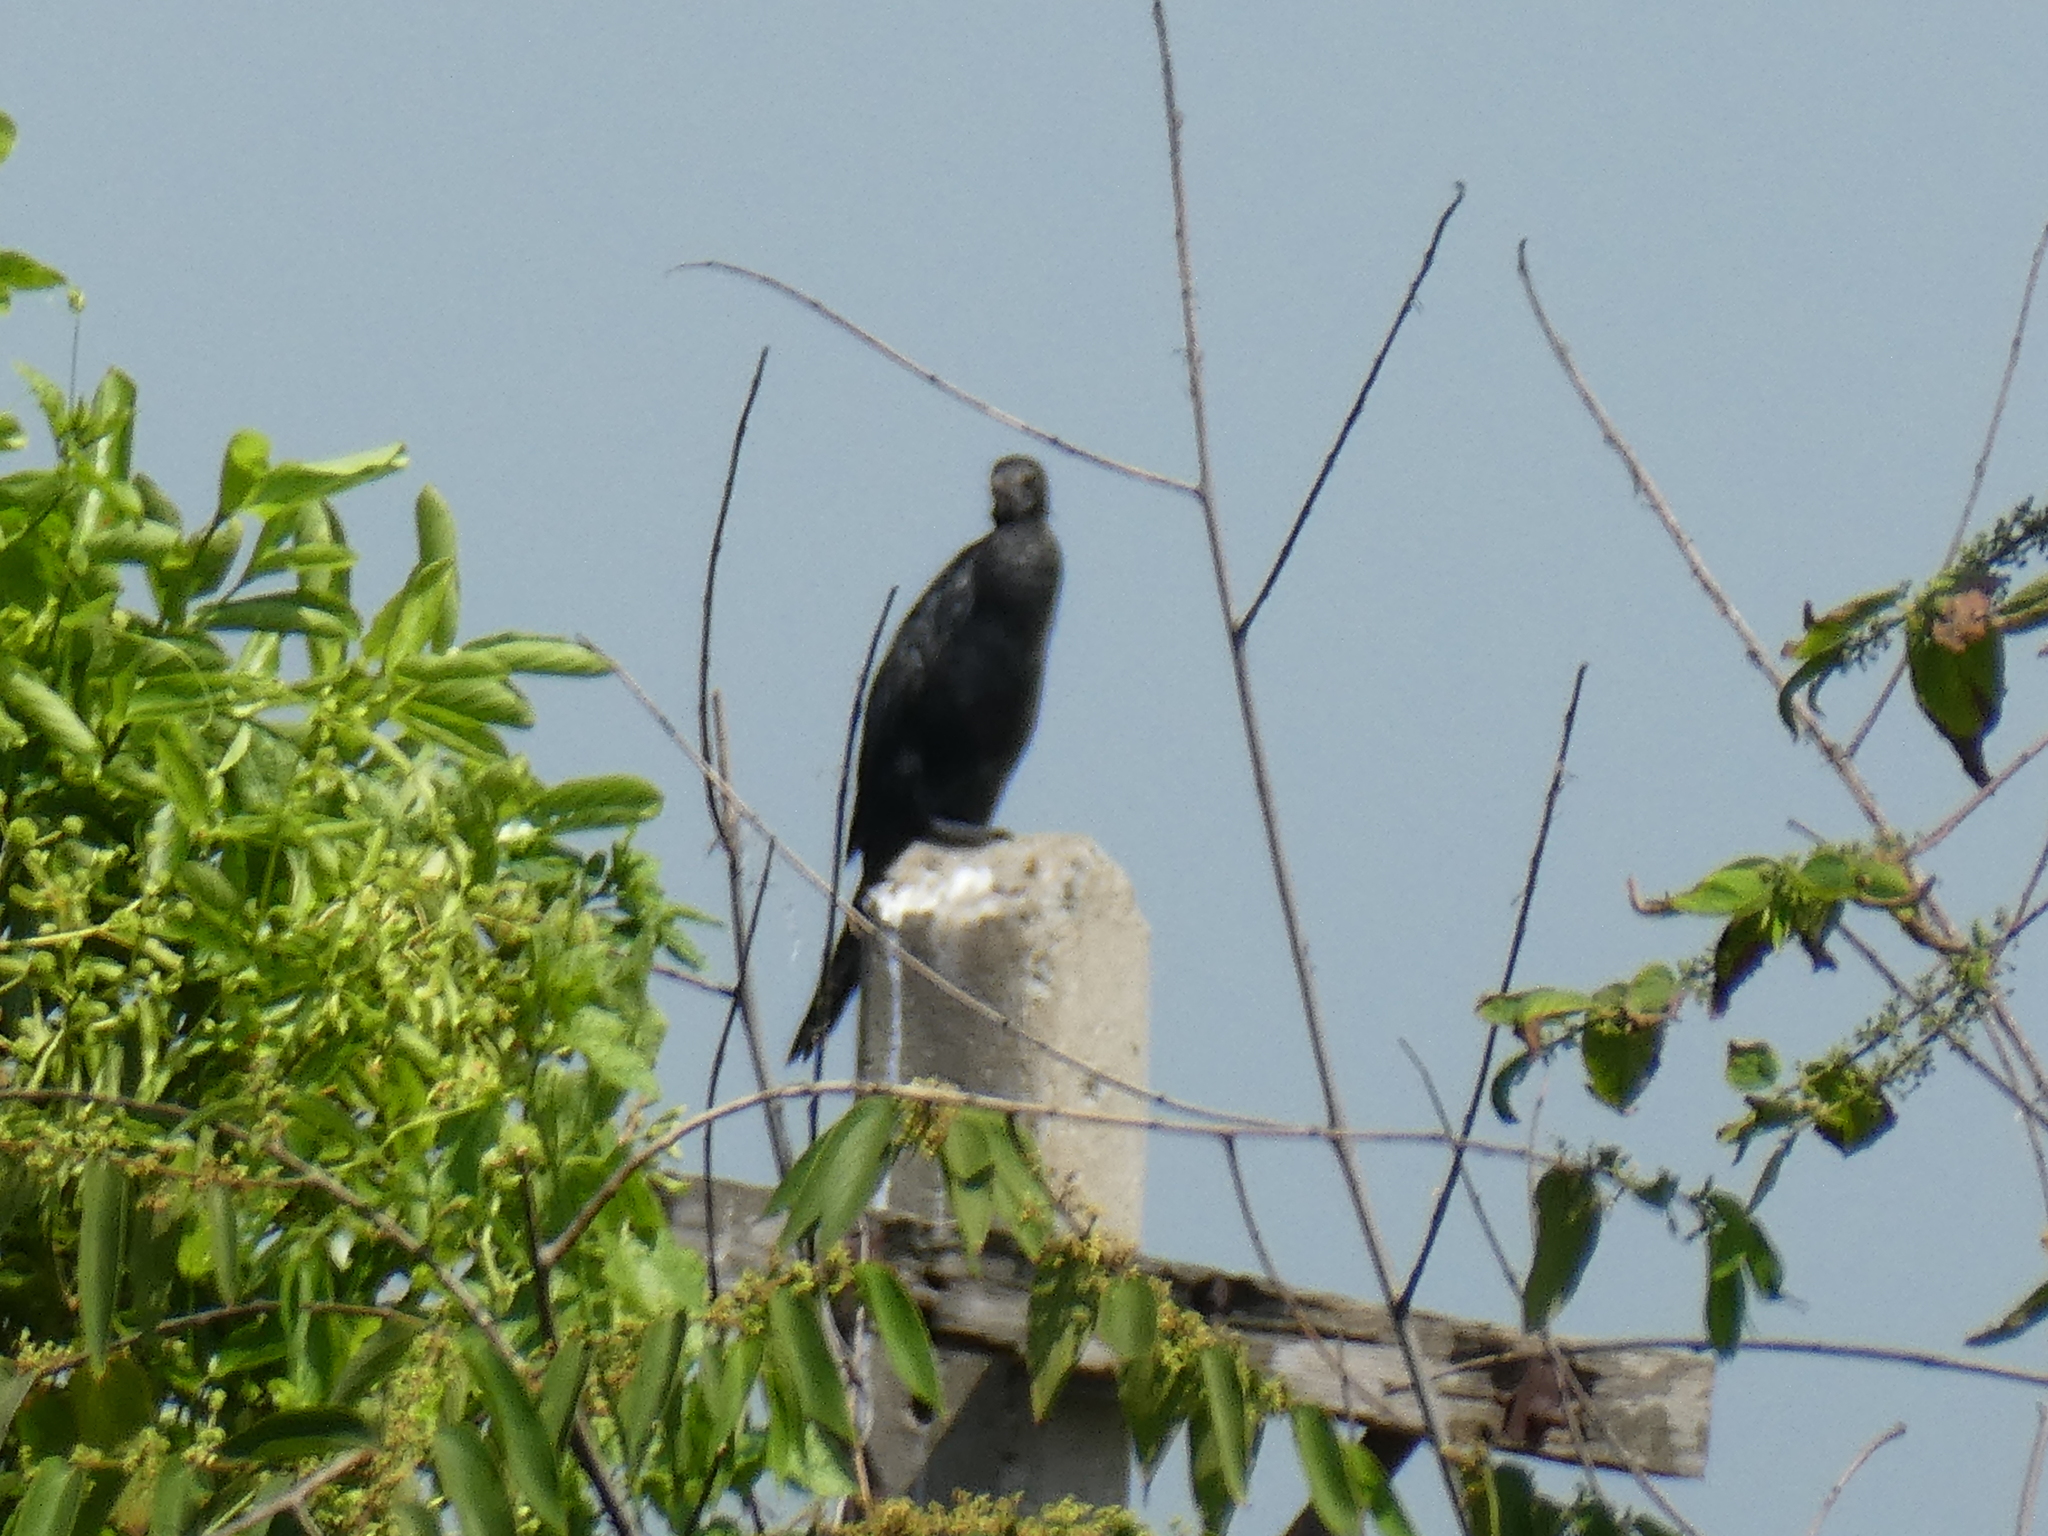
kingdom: Animalia
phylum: Chordata
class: Aves
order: Suliformes
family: Phalacrocoracidae
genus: Microcarbo
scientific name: Microcarbo niger
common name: Little cormorant
